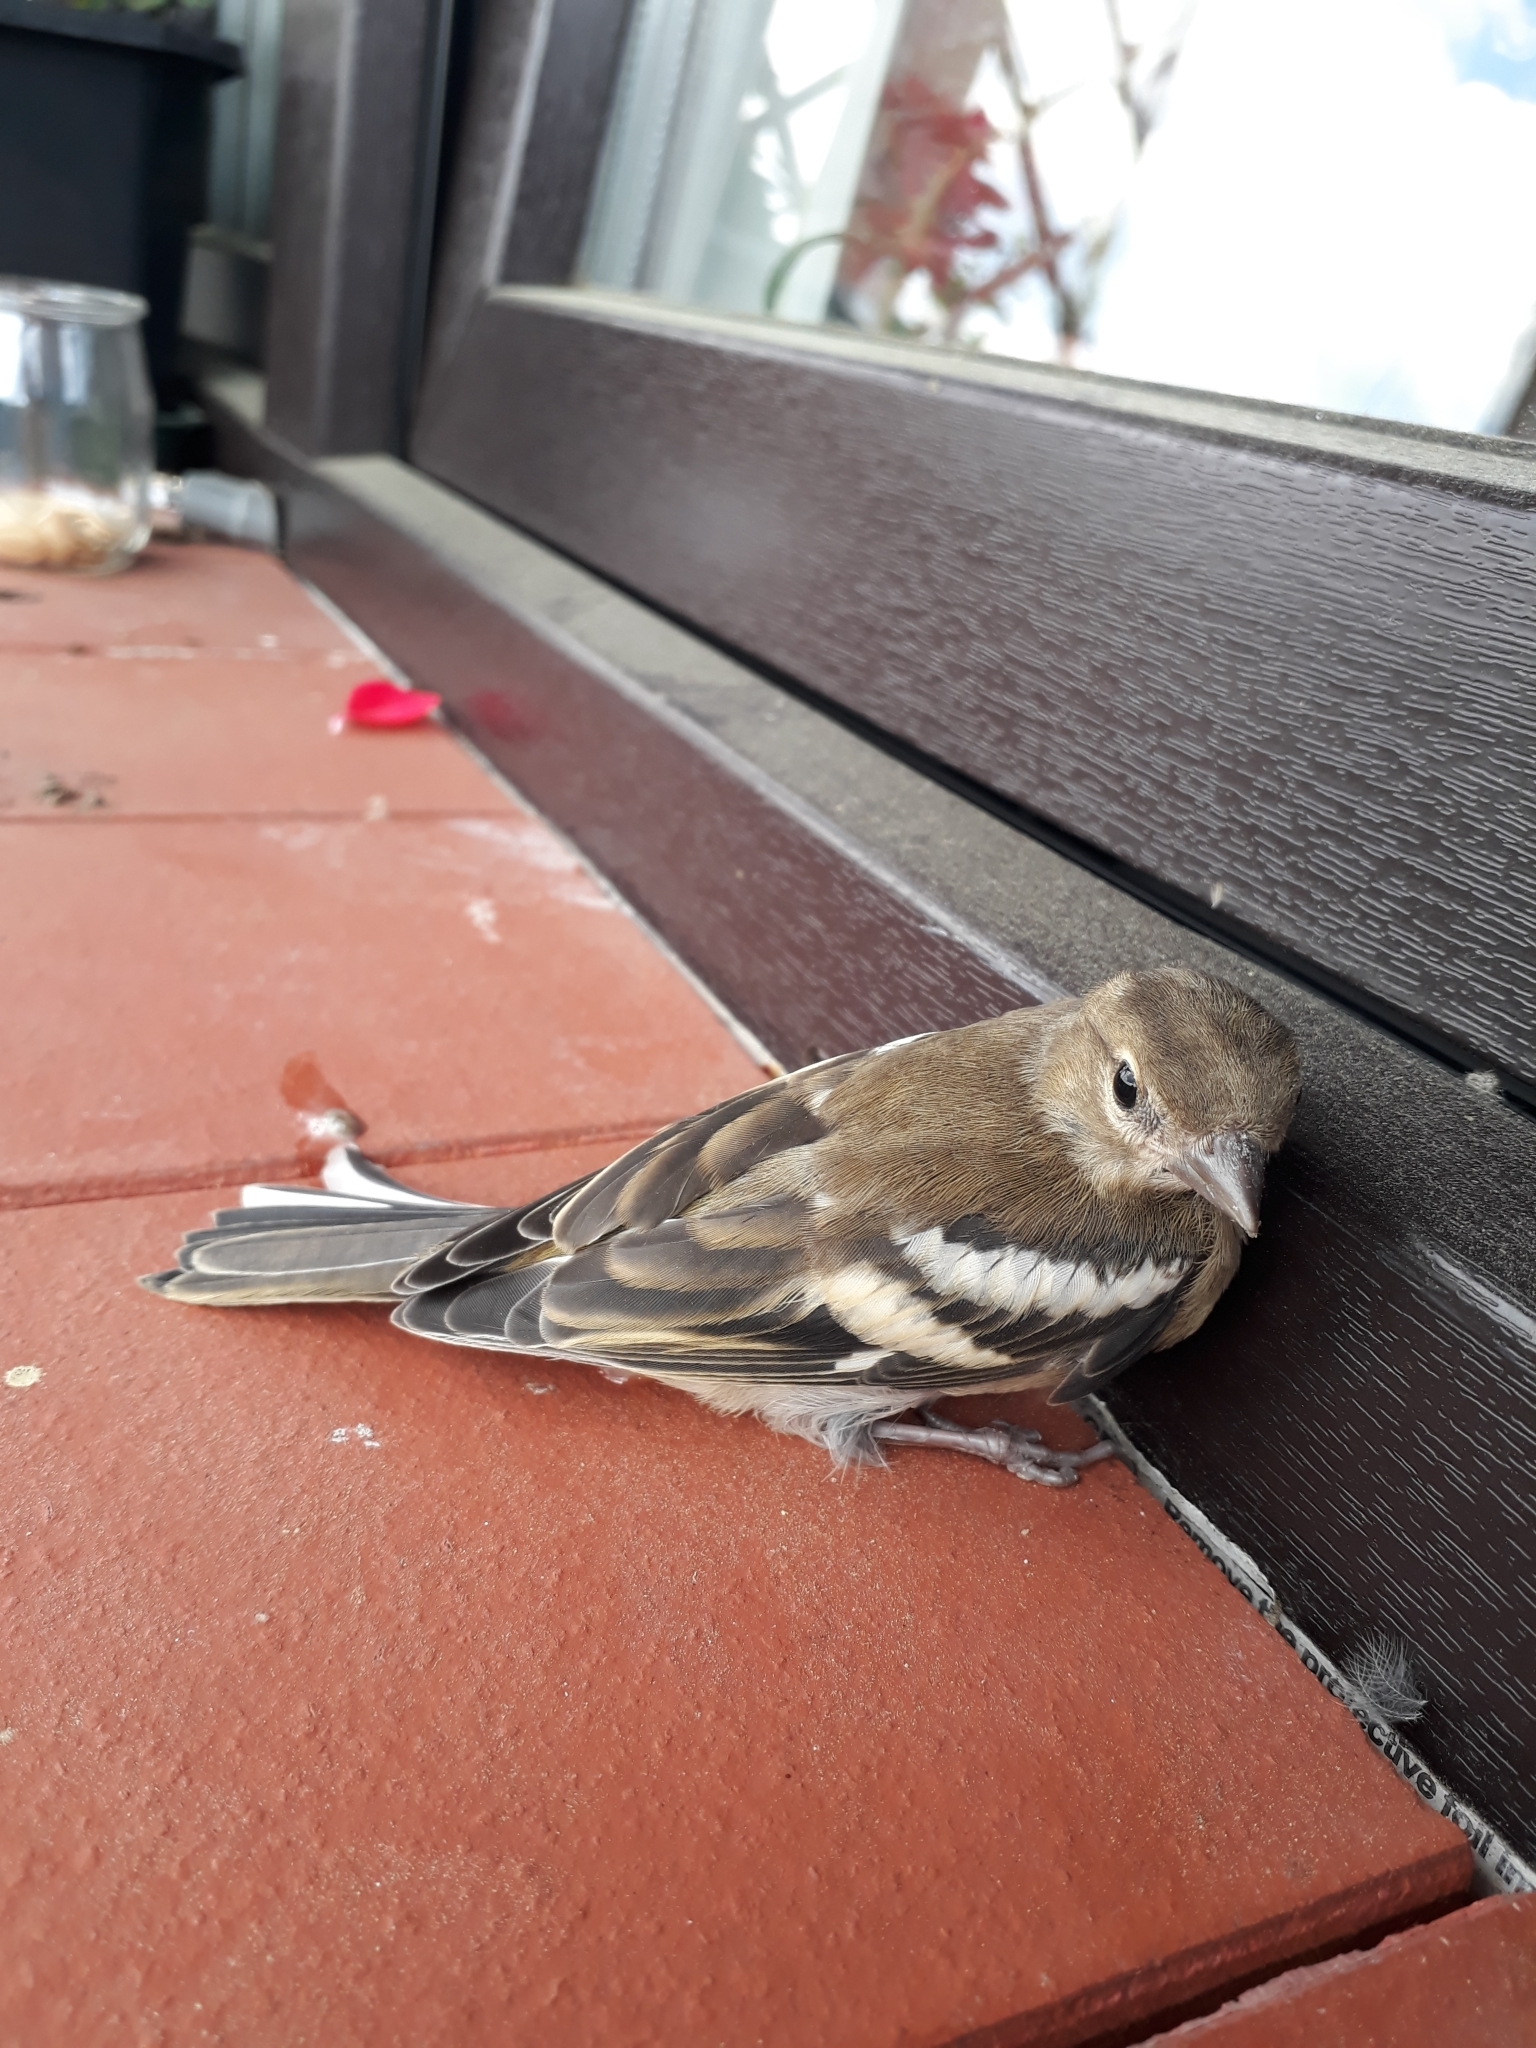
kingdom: Animalia
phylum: Chordata
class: Aves
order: Passeriformes
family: Fringillidae
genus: Fringilla
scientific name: Fringilla coelebs
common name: Common chaffinch
